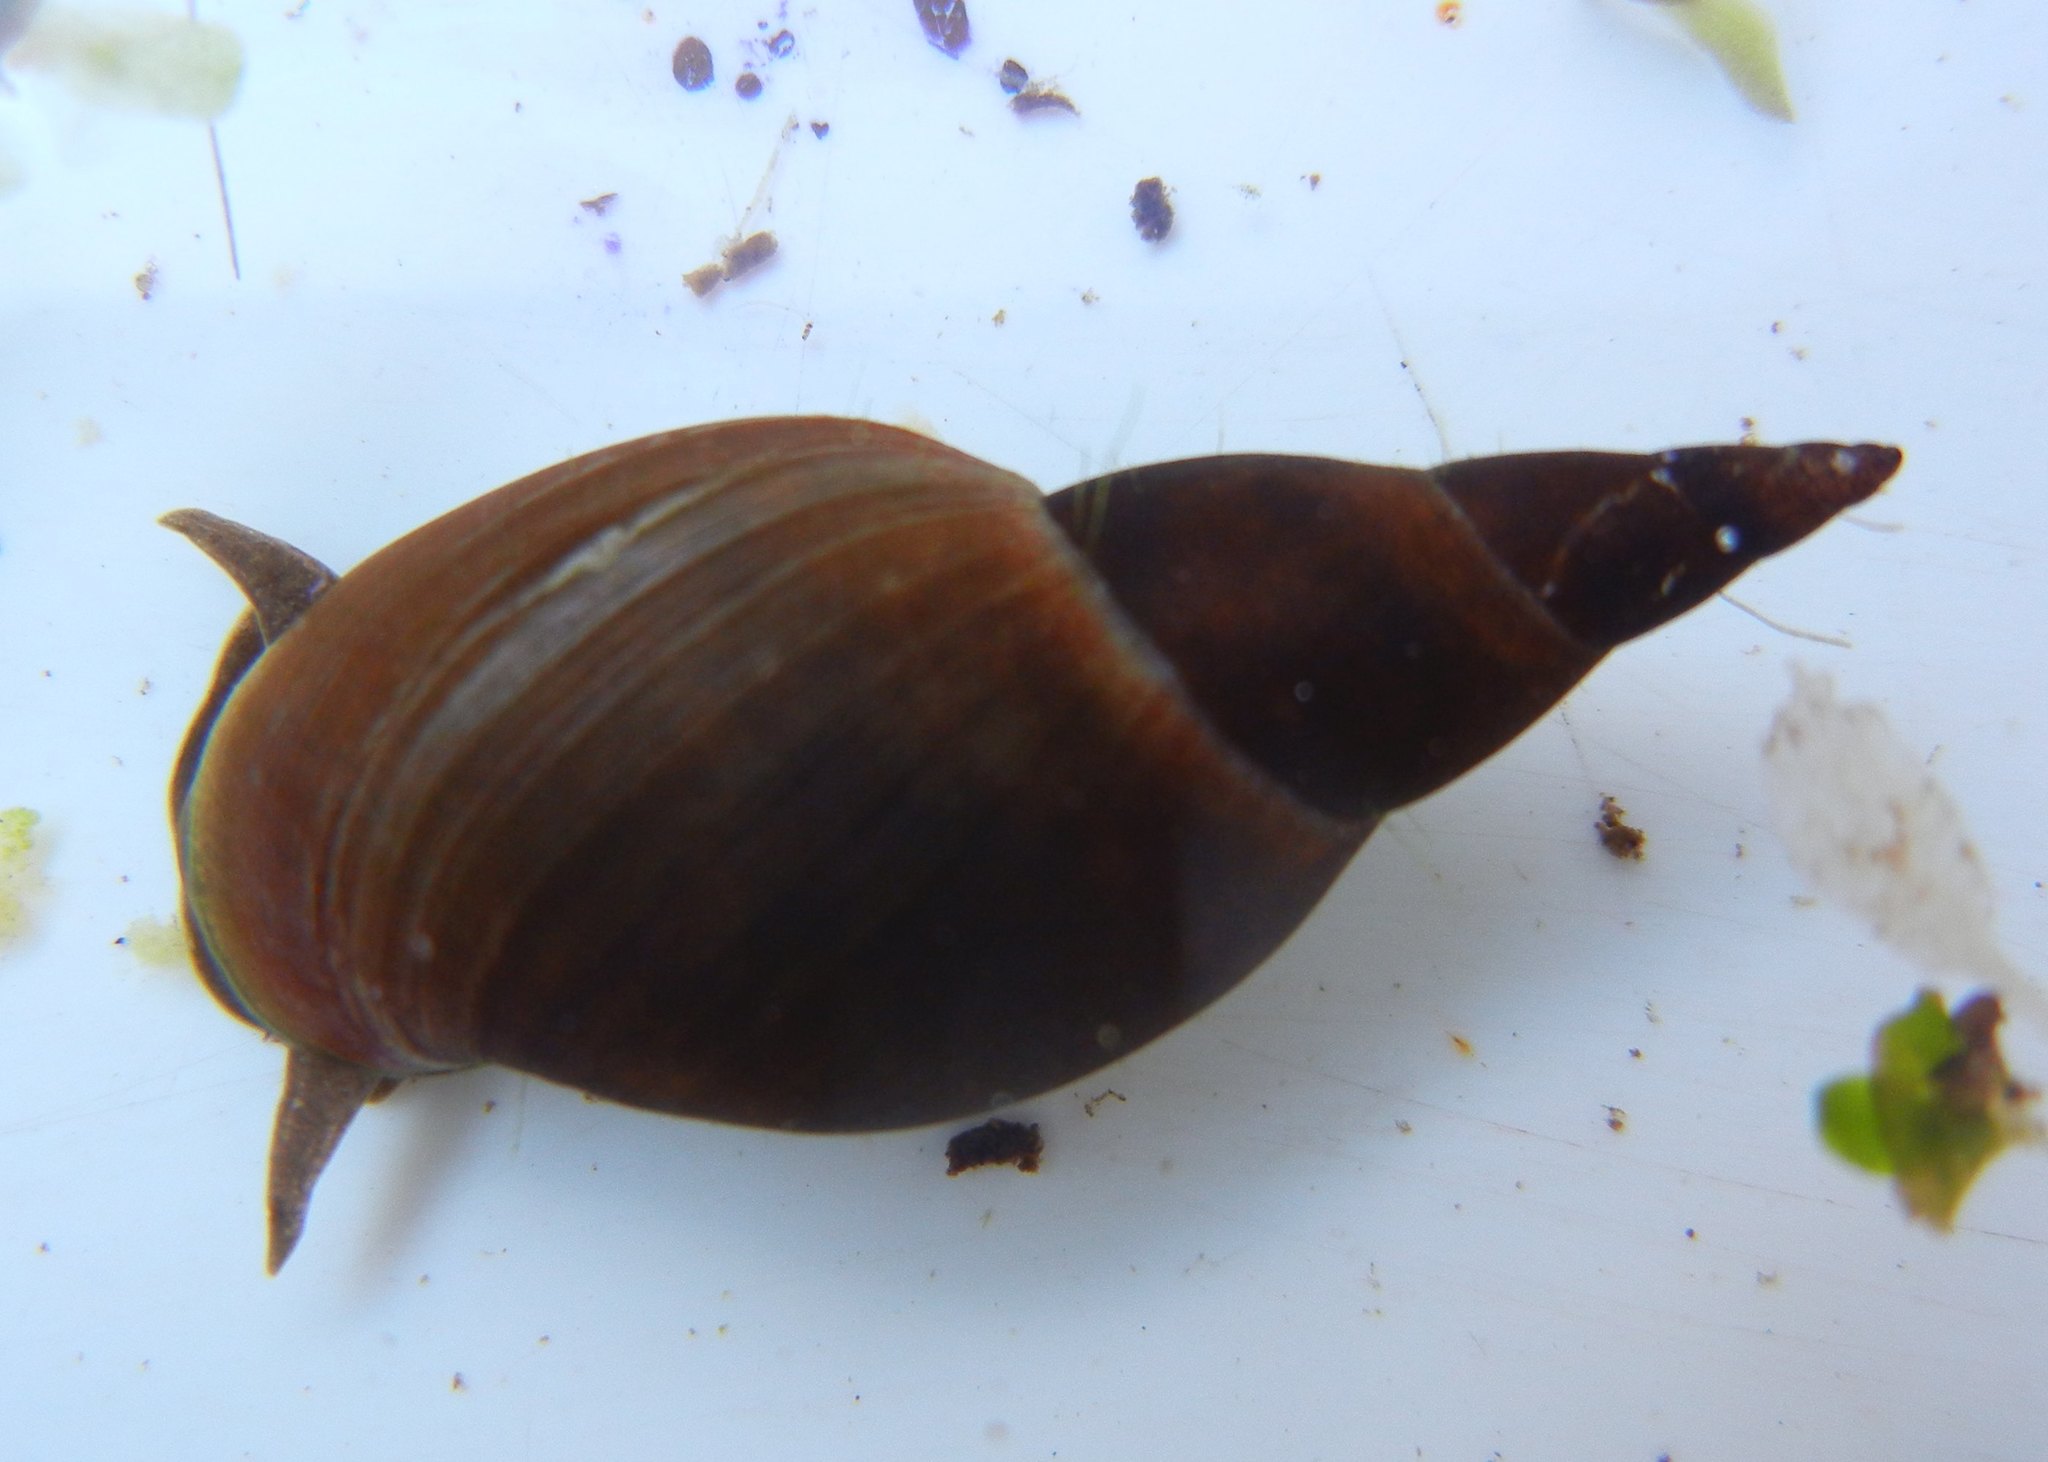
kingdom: Animalia
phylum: Mollusca
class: Gastropoda
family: Lymnaeidae
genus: Lymnaea
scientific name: Lymnaea stagnalis
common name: Great pond snail
